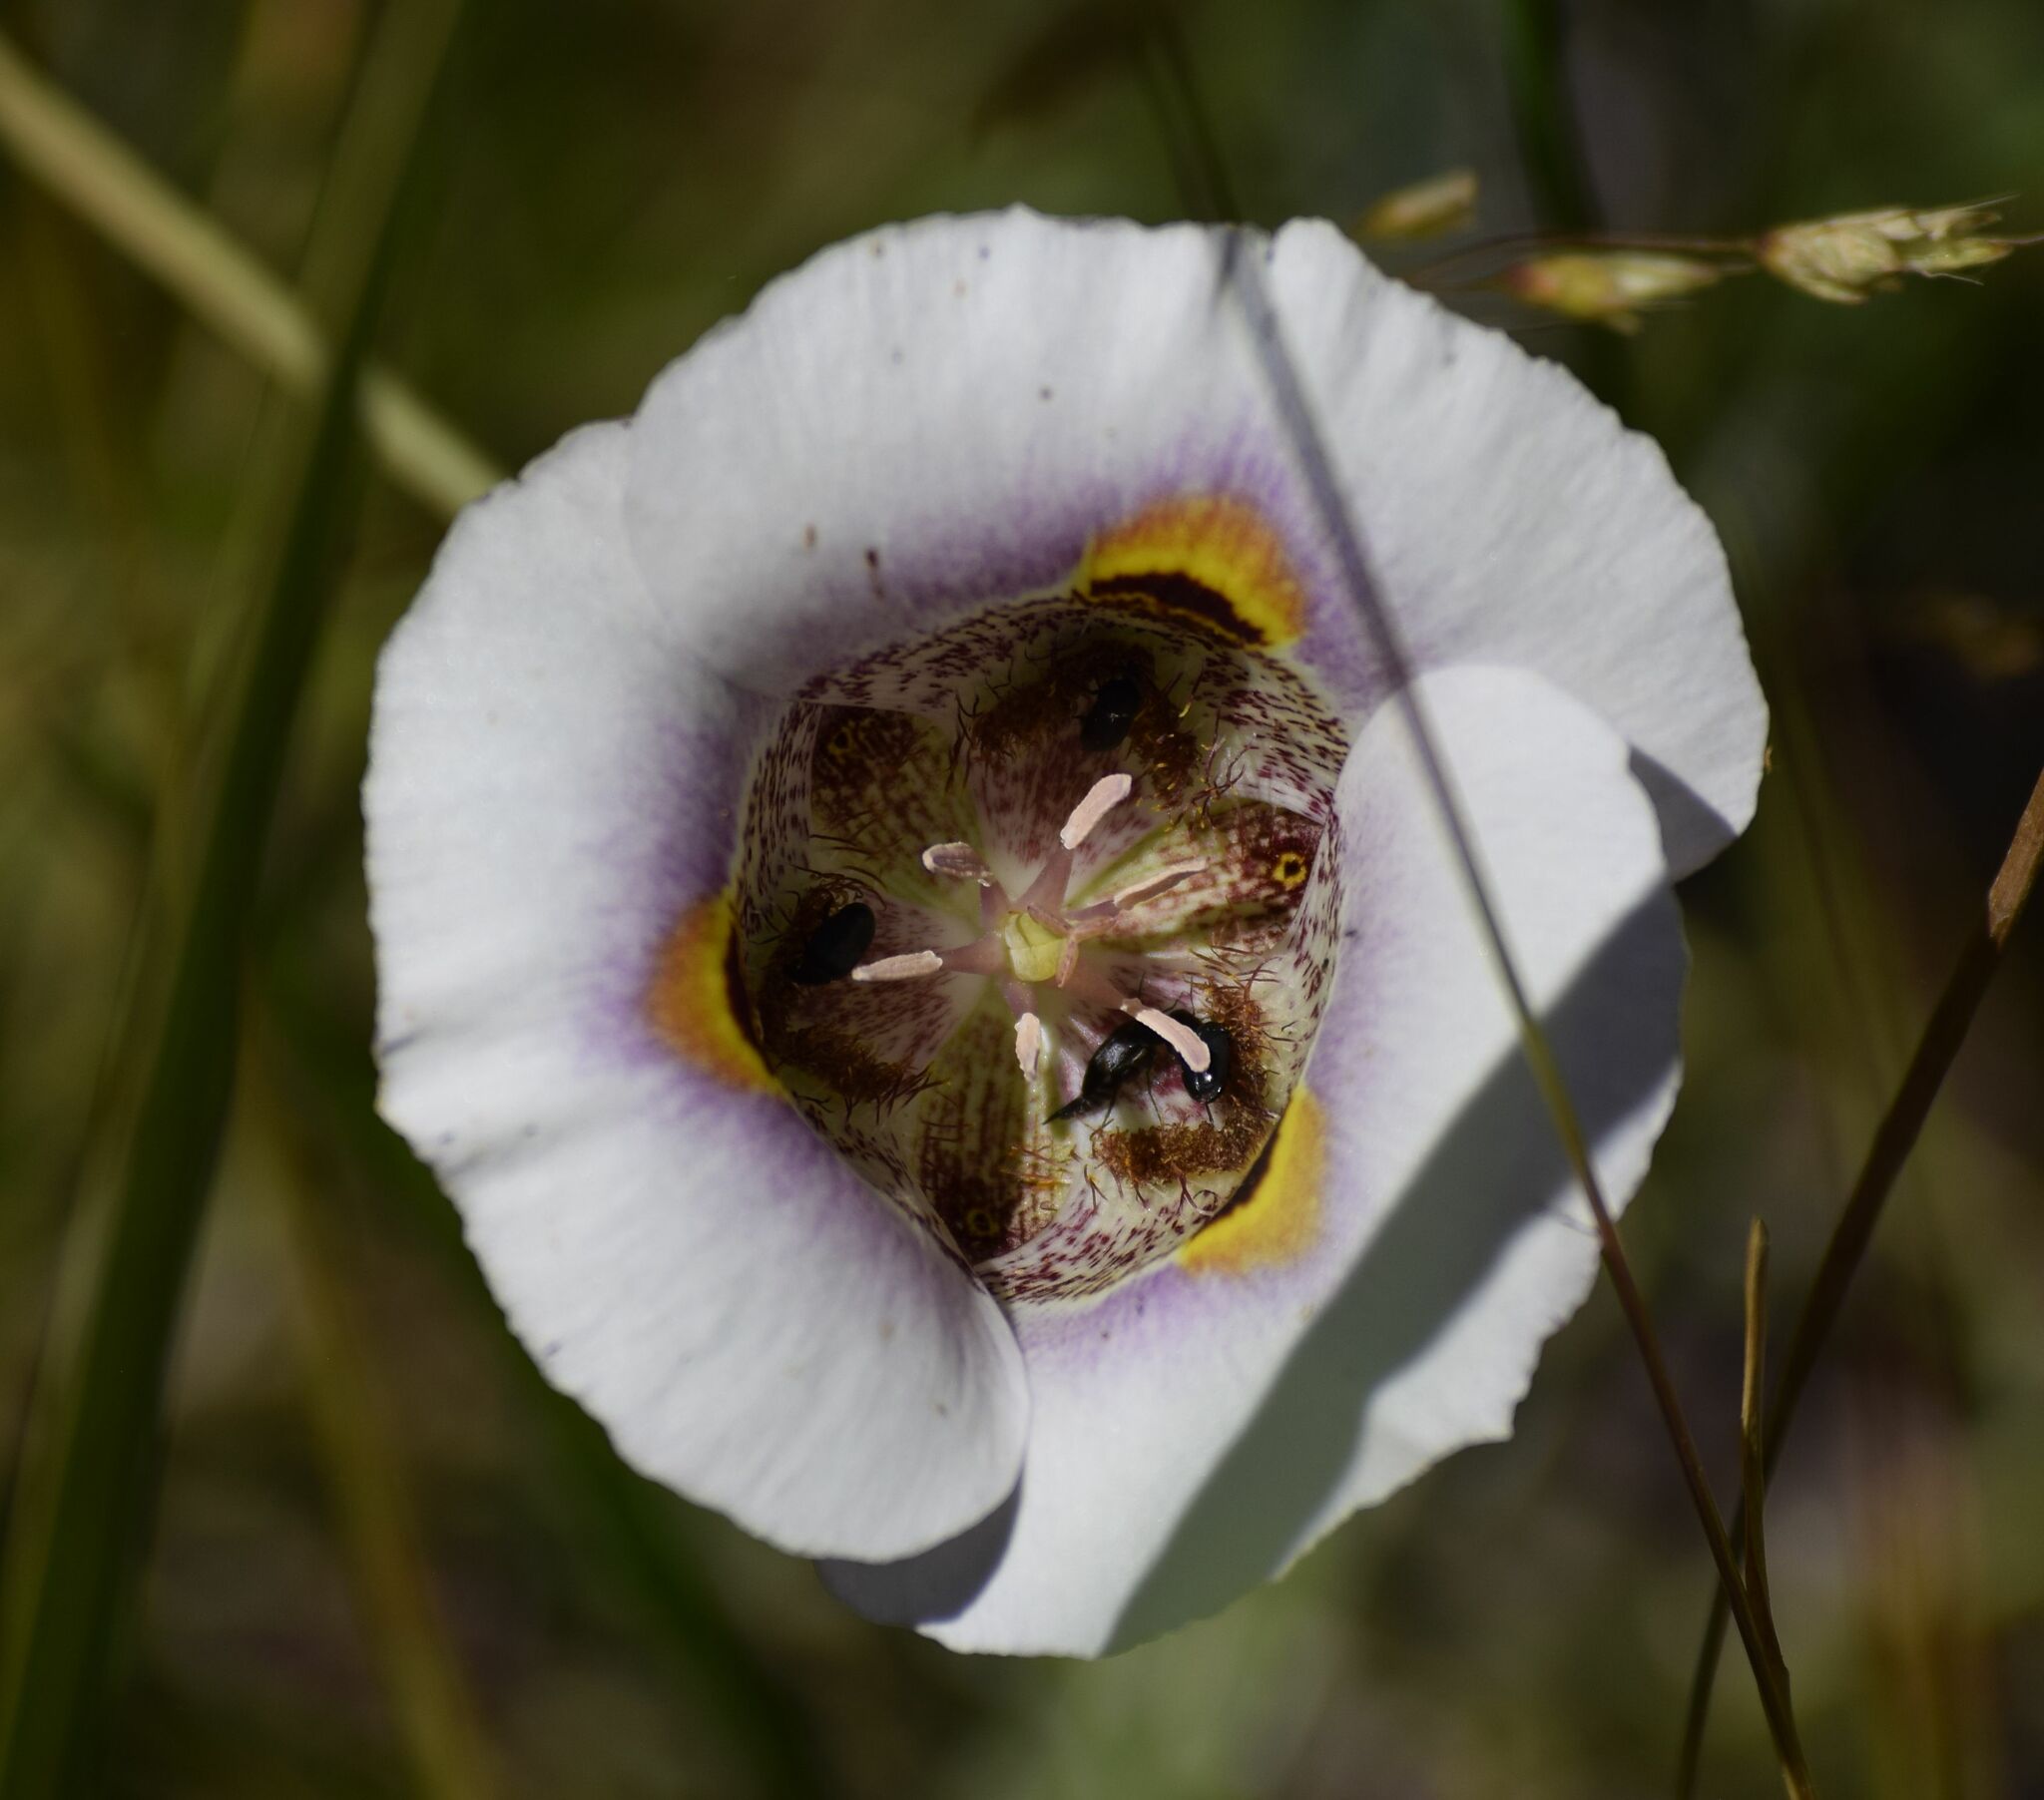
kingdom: Plantae
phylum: Tracheophyta
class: Liliopsida
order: Liliales
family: Liliaceae
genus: Calochortus
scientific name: Calochortus superbus
